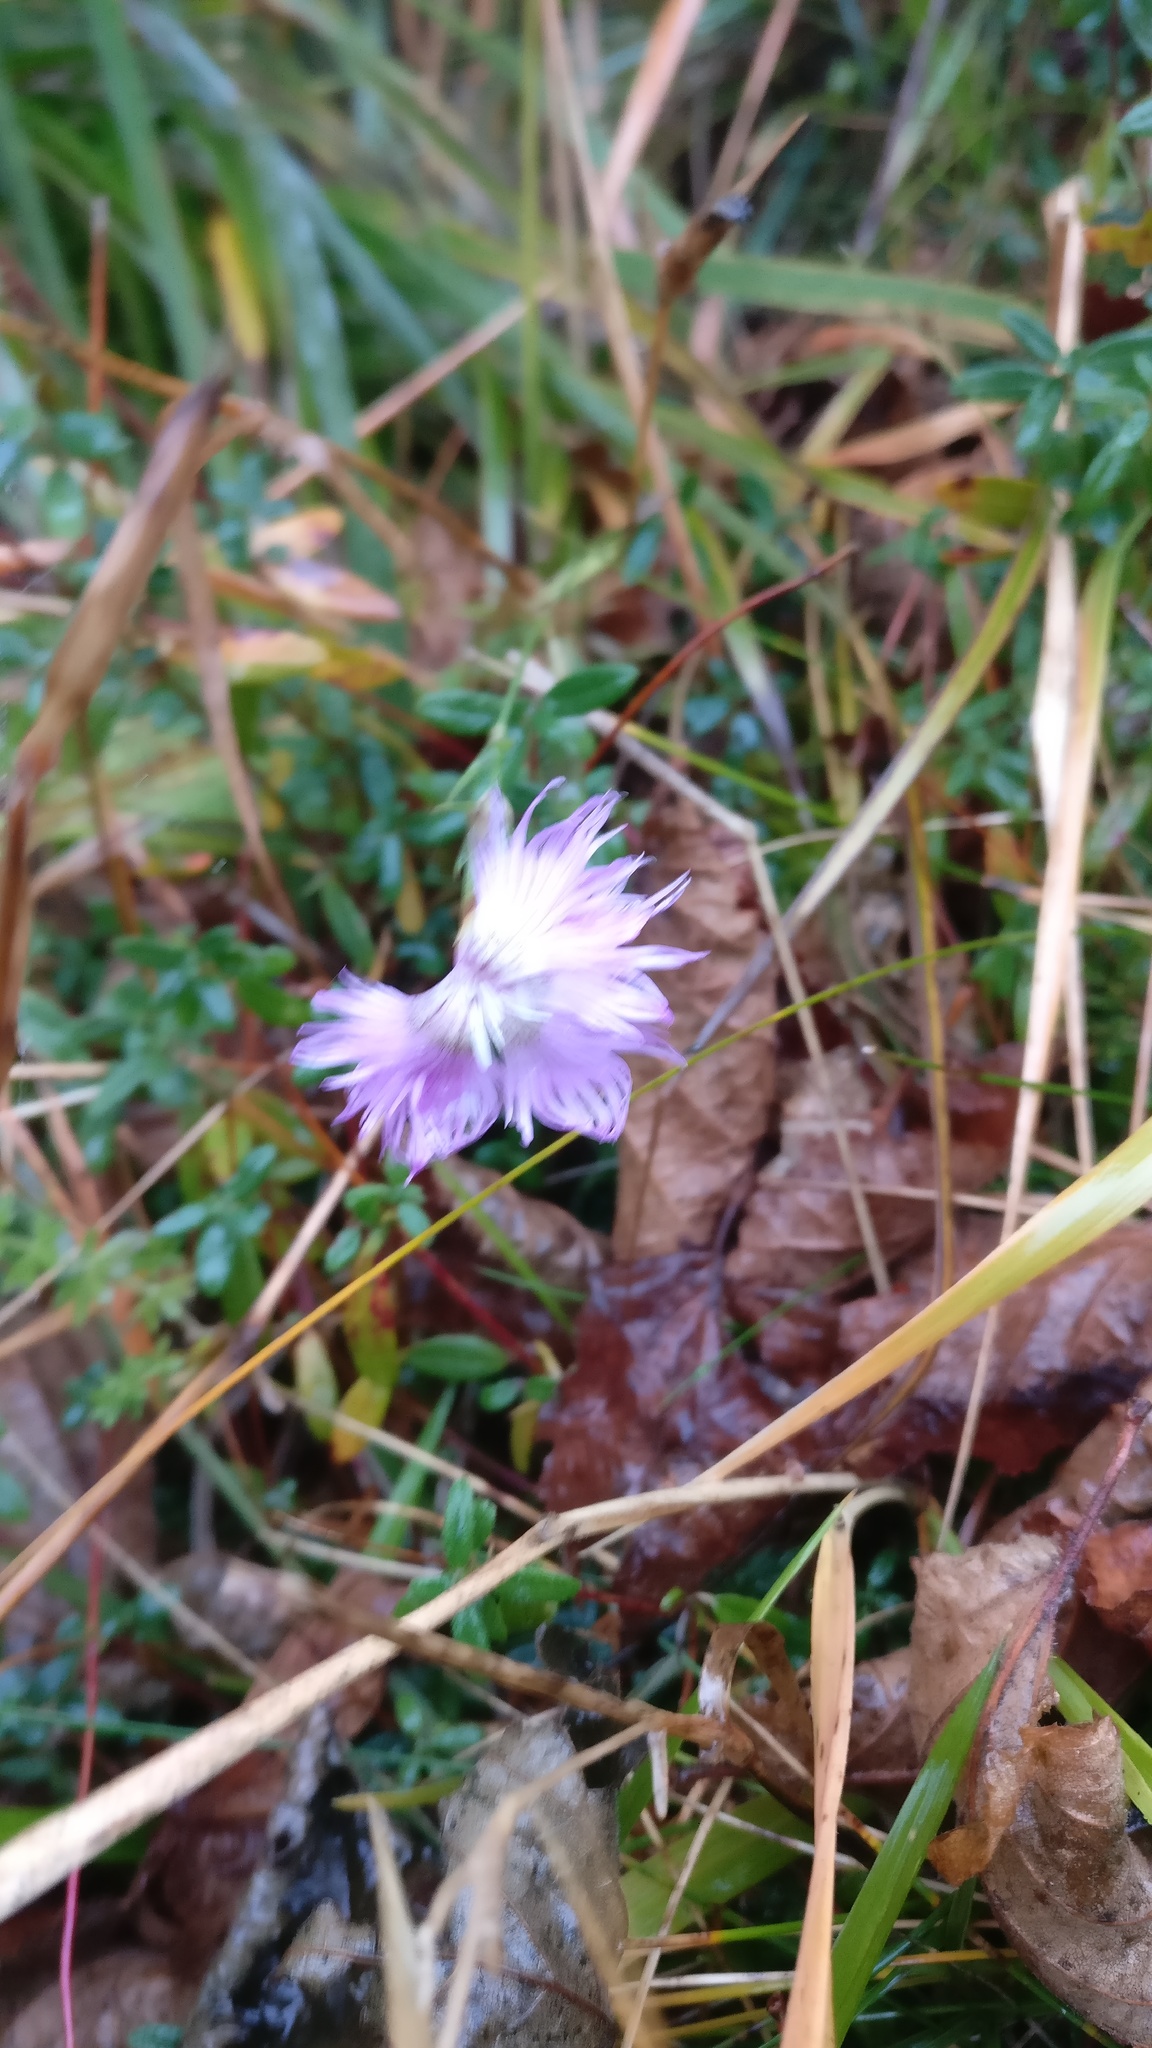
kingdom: Plantae
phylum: Tracheophyta
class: Magnoliopsida
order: Caryophyllales
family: Caryophyllaceae
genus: Dianthus
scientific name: Dianthus hyssopifolius
